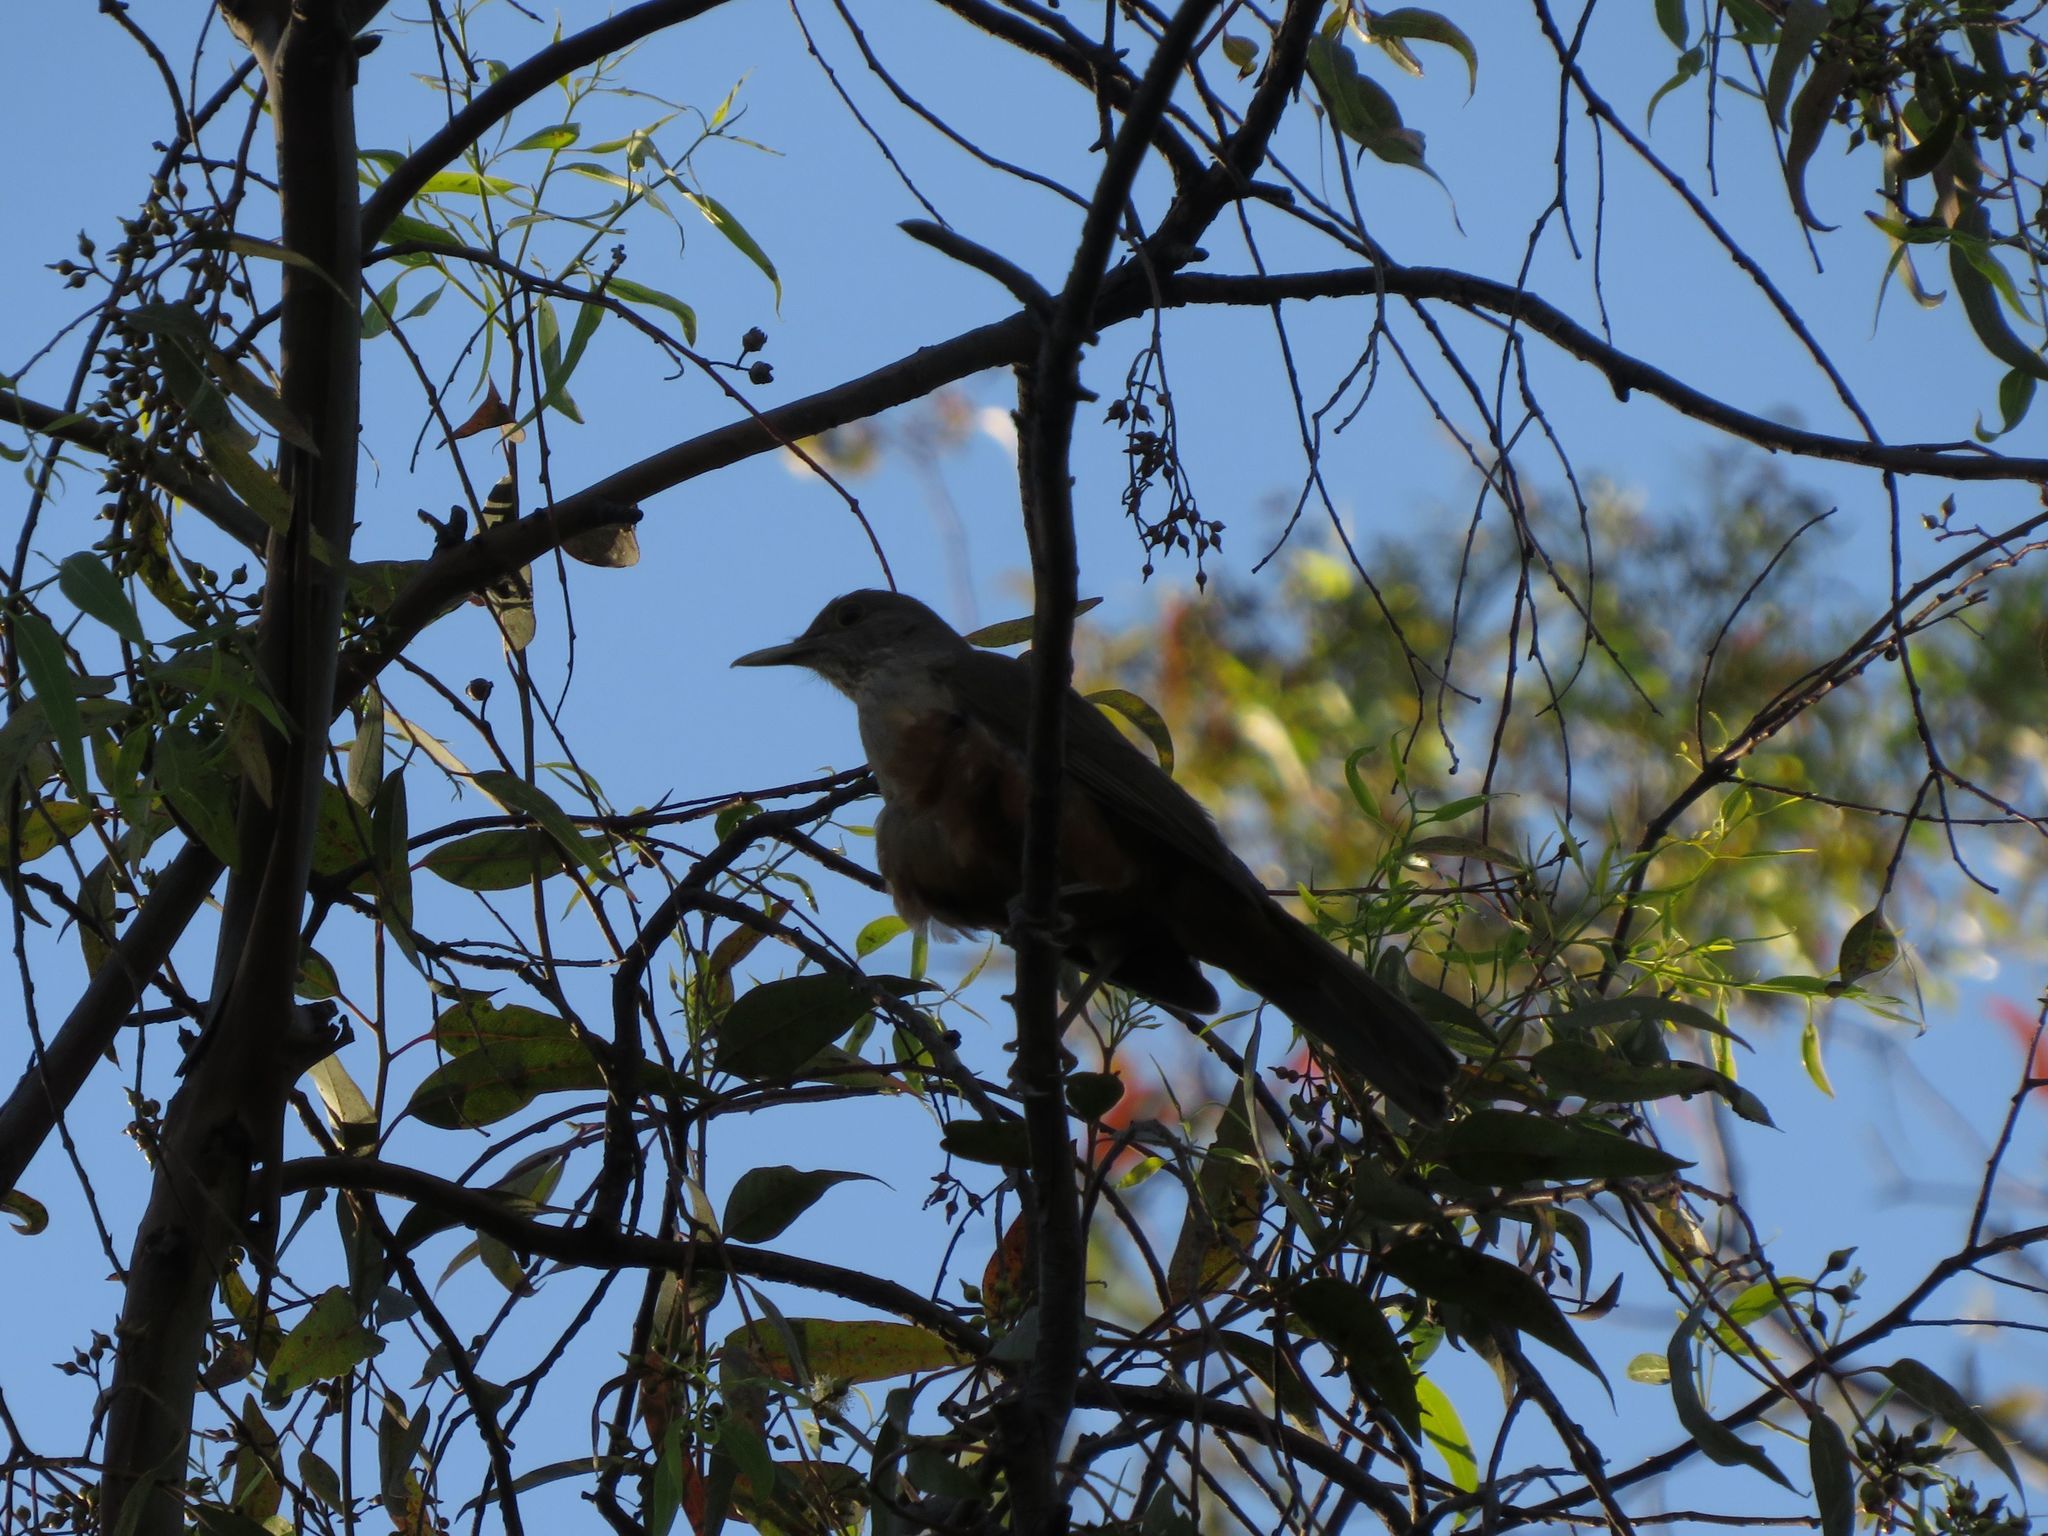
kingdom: Animalia
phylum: Chordata
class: Aves
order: Passeriformes
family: Turdidae
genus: Turdus
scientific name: Turdus rufiventris
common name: Rufous-bellied thrush
